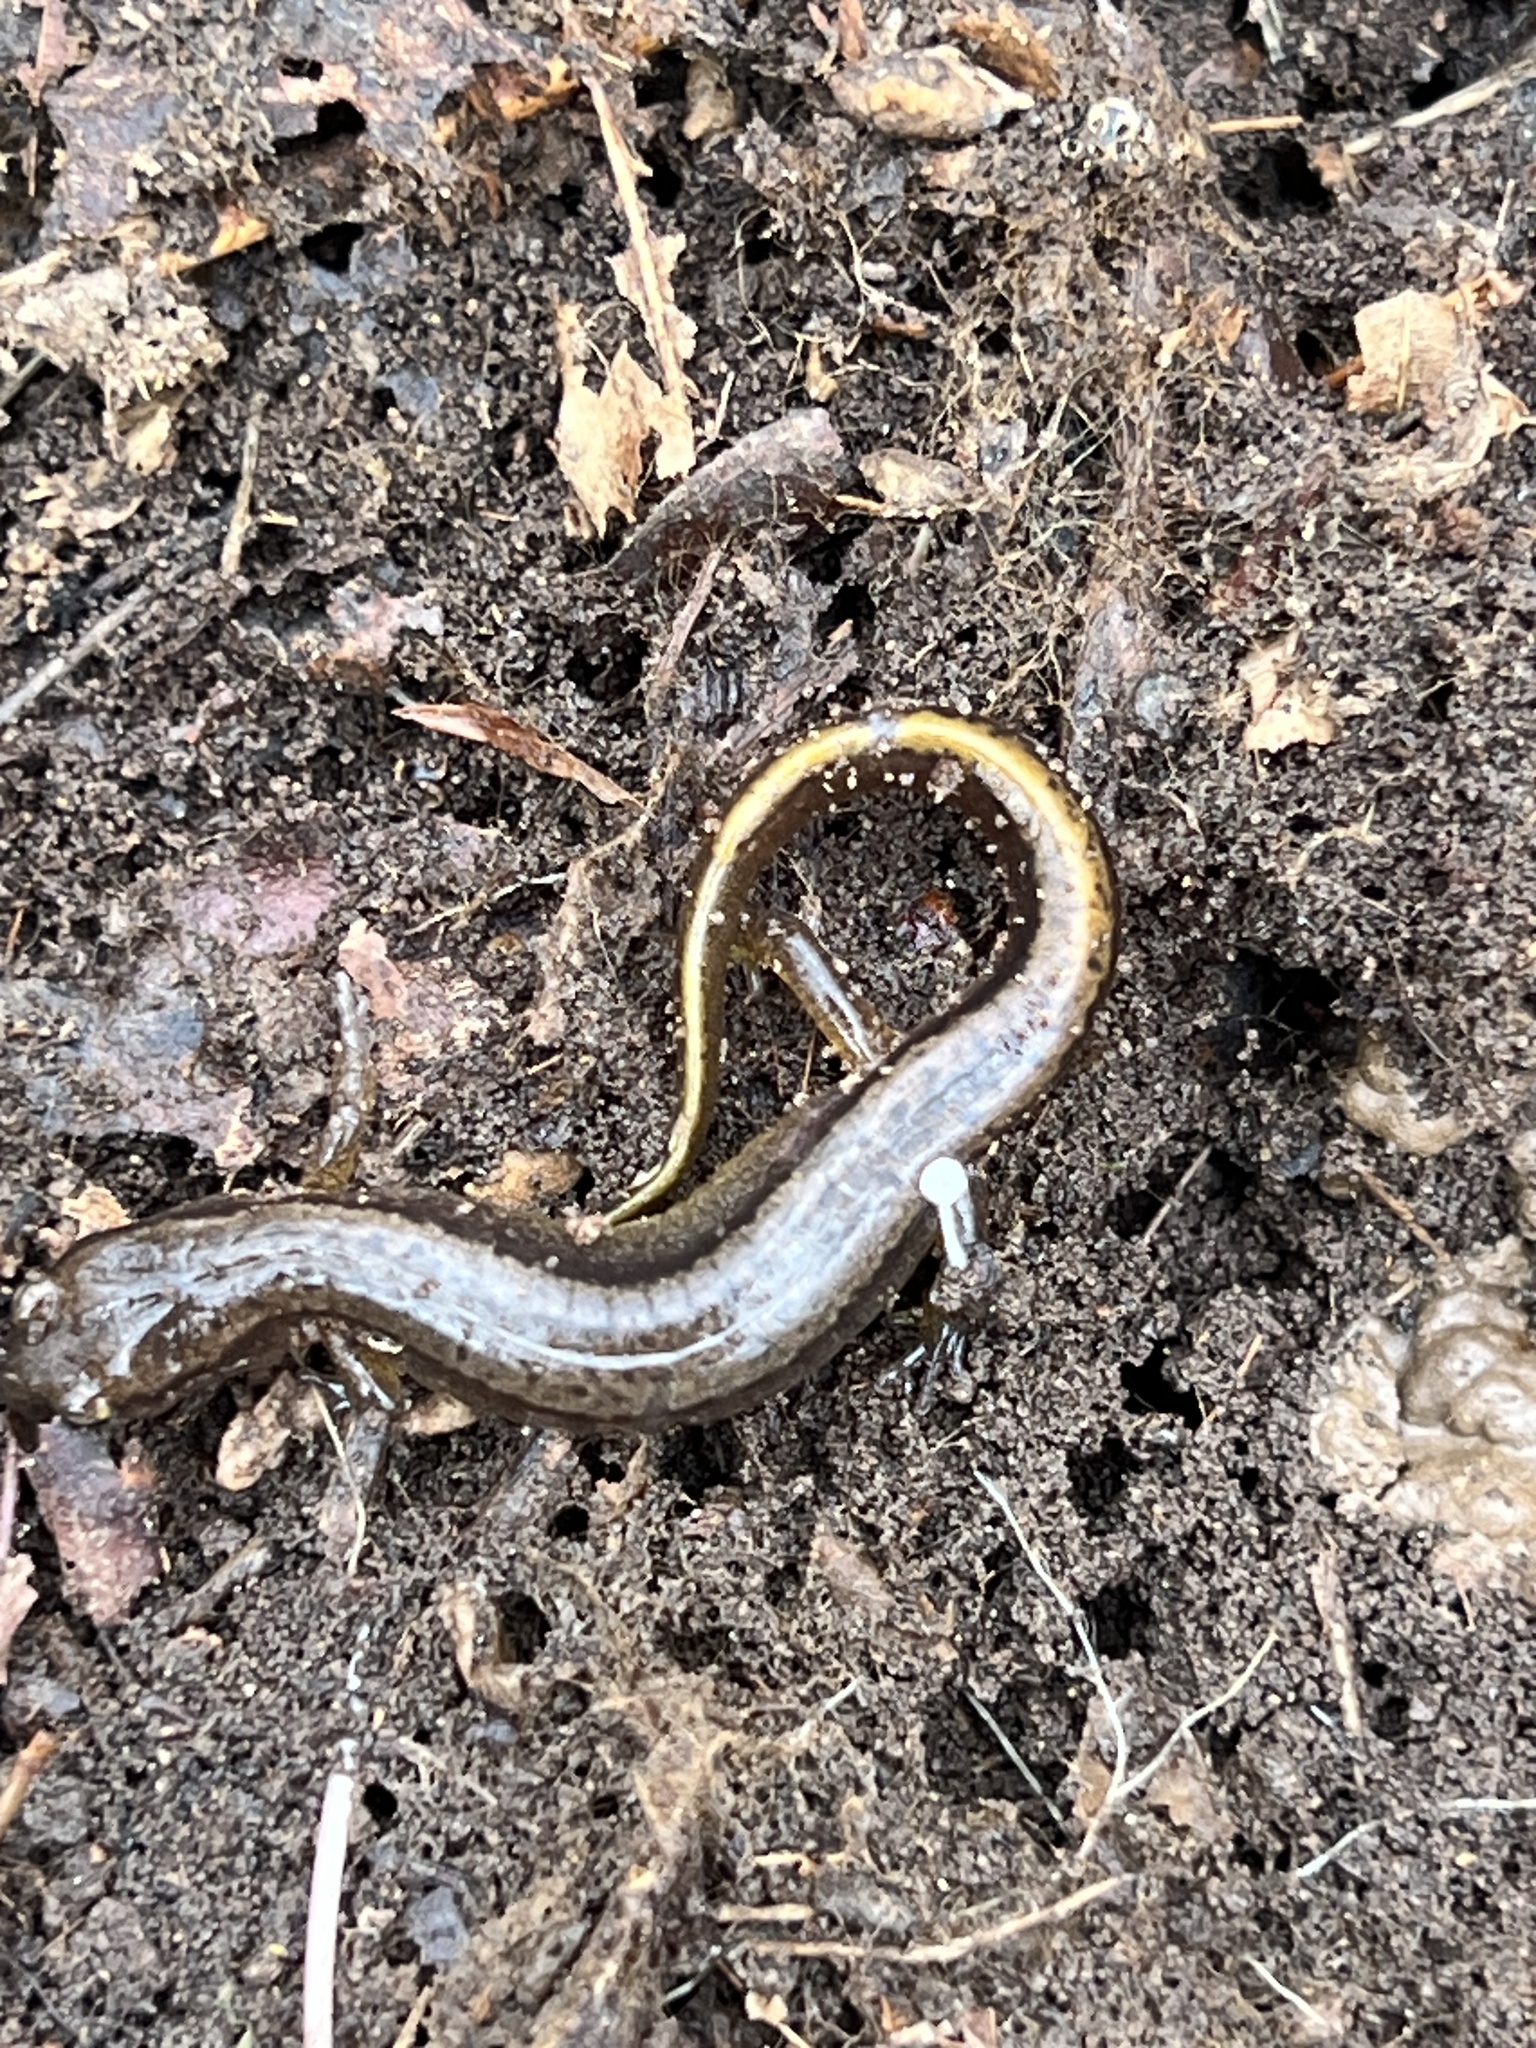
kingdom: Animalia
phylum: Chordata
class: Amphibia
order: Caudata
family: Plethodontidae
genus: Eurycea
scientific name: Eurycea bislineata
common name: Northern two-lined salamander
